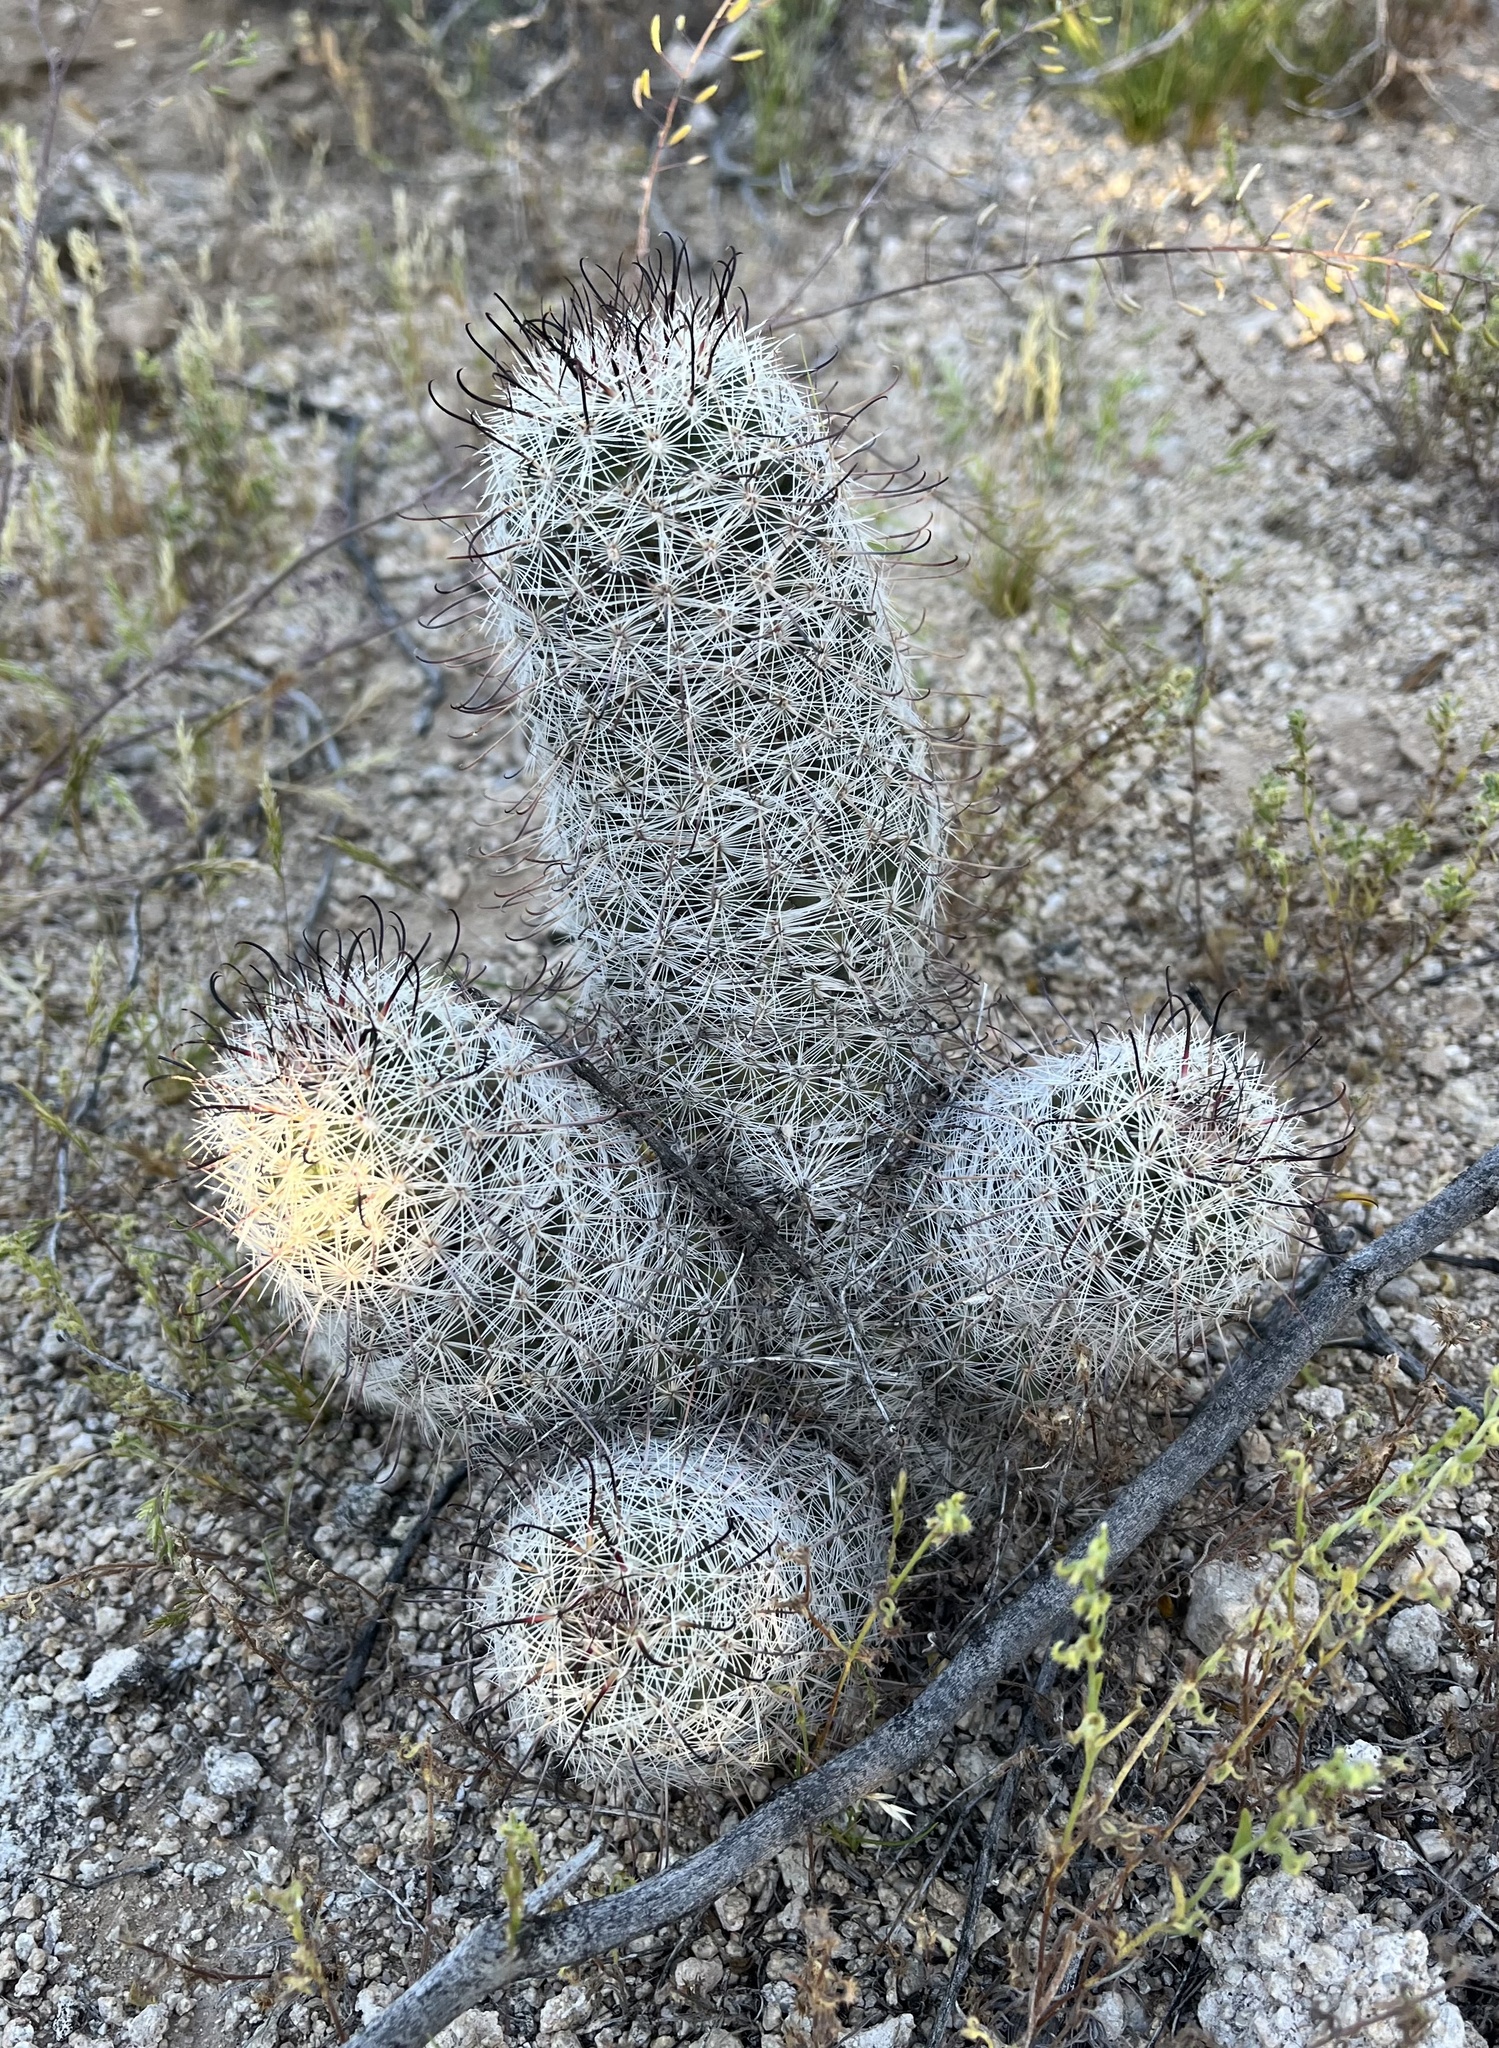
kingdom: Plantae
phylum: Tracheophyta
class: Magnoliopsida
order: Caryophyllales
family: Cactaceae
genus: Cochemiea
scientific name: Cochemiea grahamii
